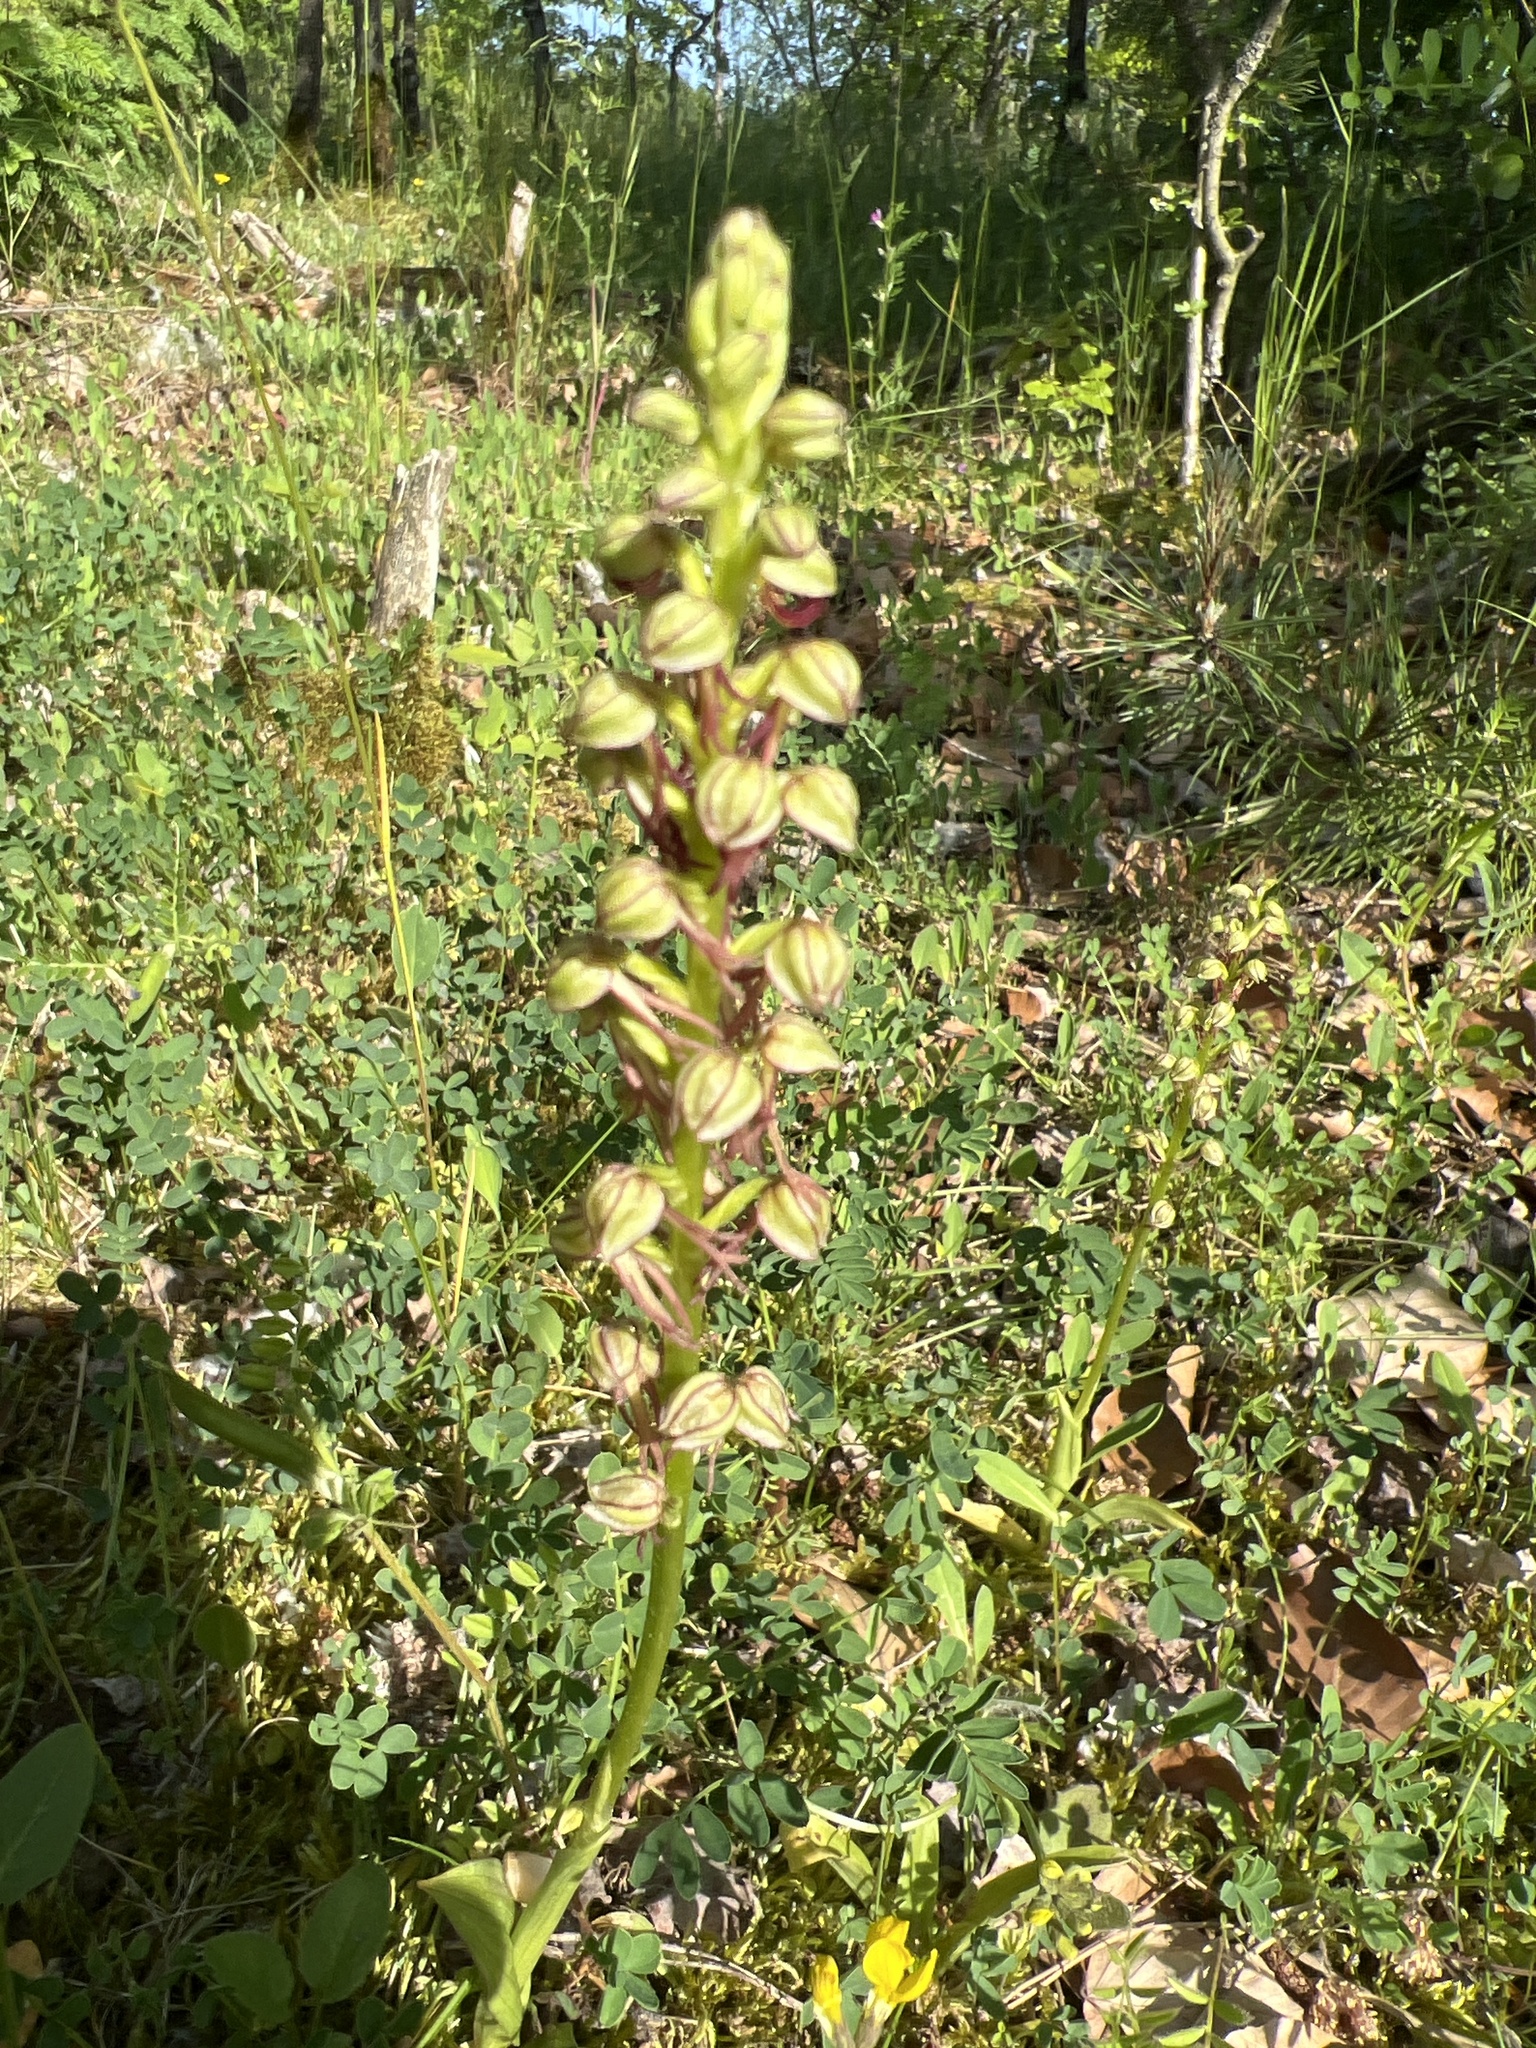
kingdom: Plantae
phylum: Tracheophyta
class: Liliopsida
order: Asparagales
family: Orchidaceae
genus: Orchis
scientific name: Orchis anthropophora
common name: Man orchid
